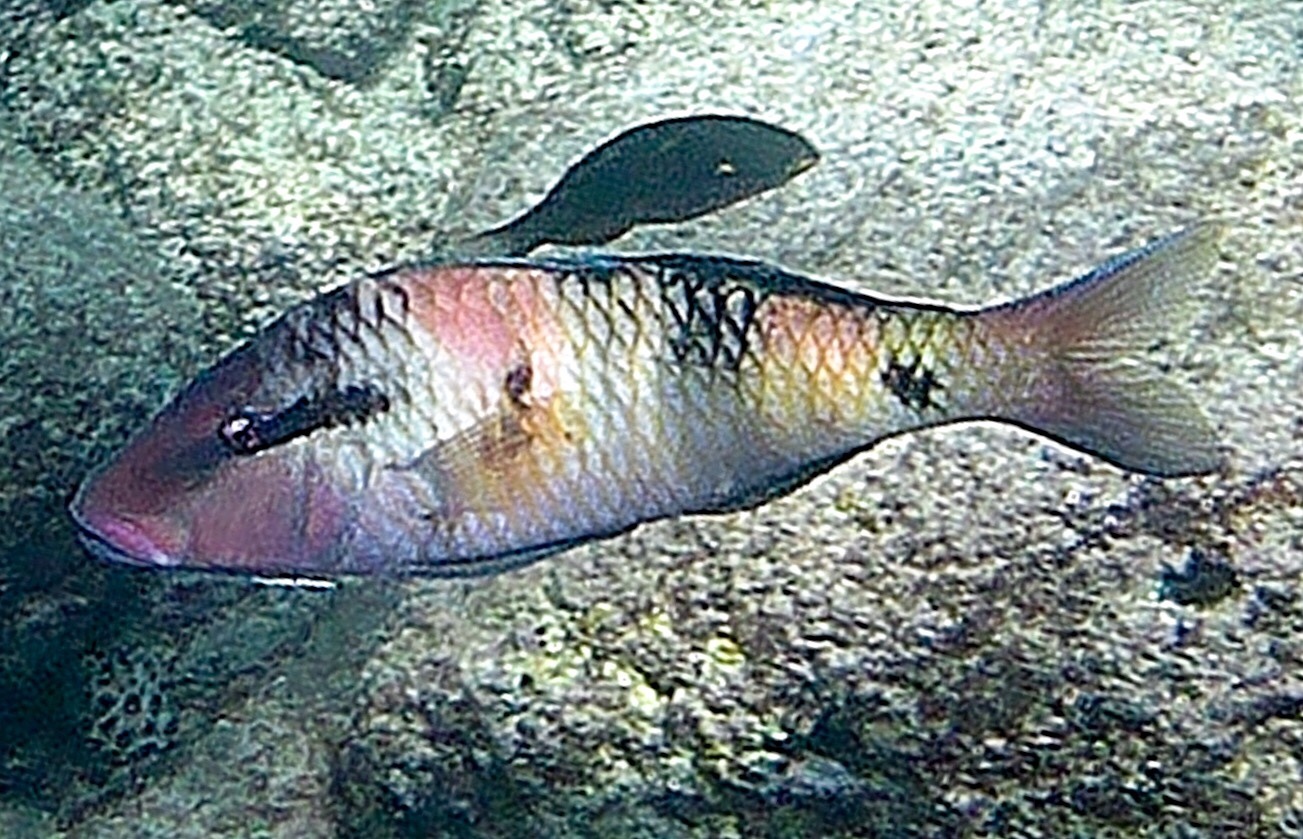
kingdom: Animalia
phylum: Chordata
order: Perciformes
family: Mullidae
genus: Parupeneus
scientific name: Parupeneus multifasciatus
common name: Manybar goatfish
